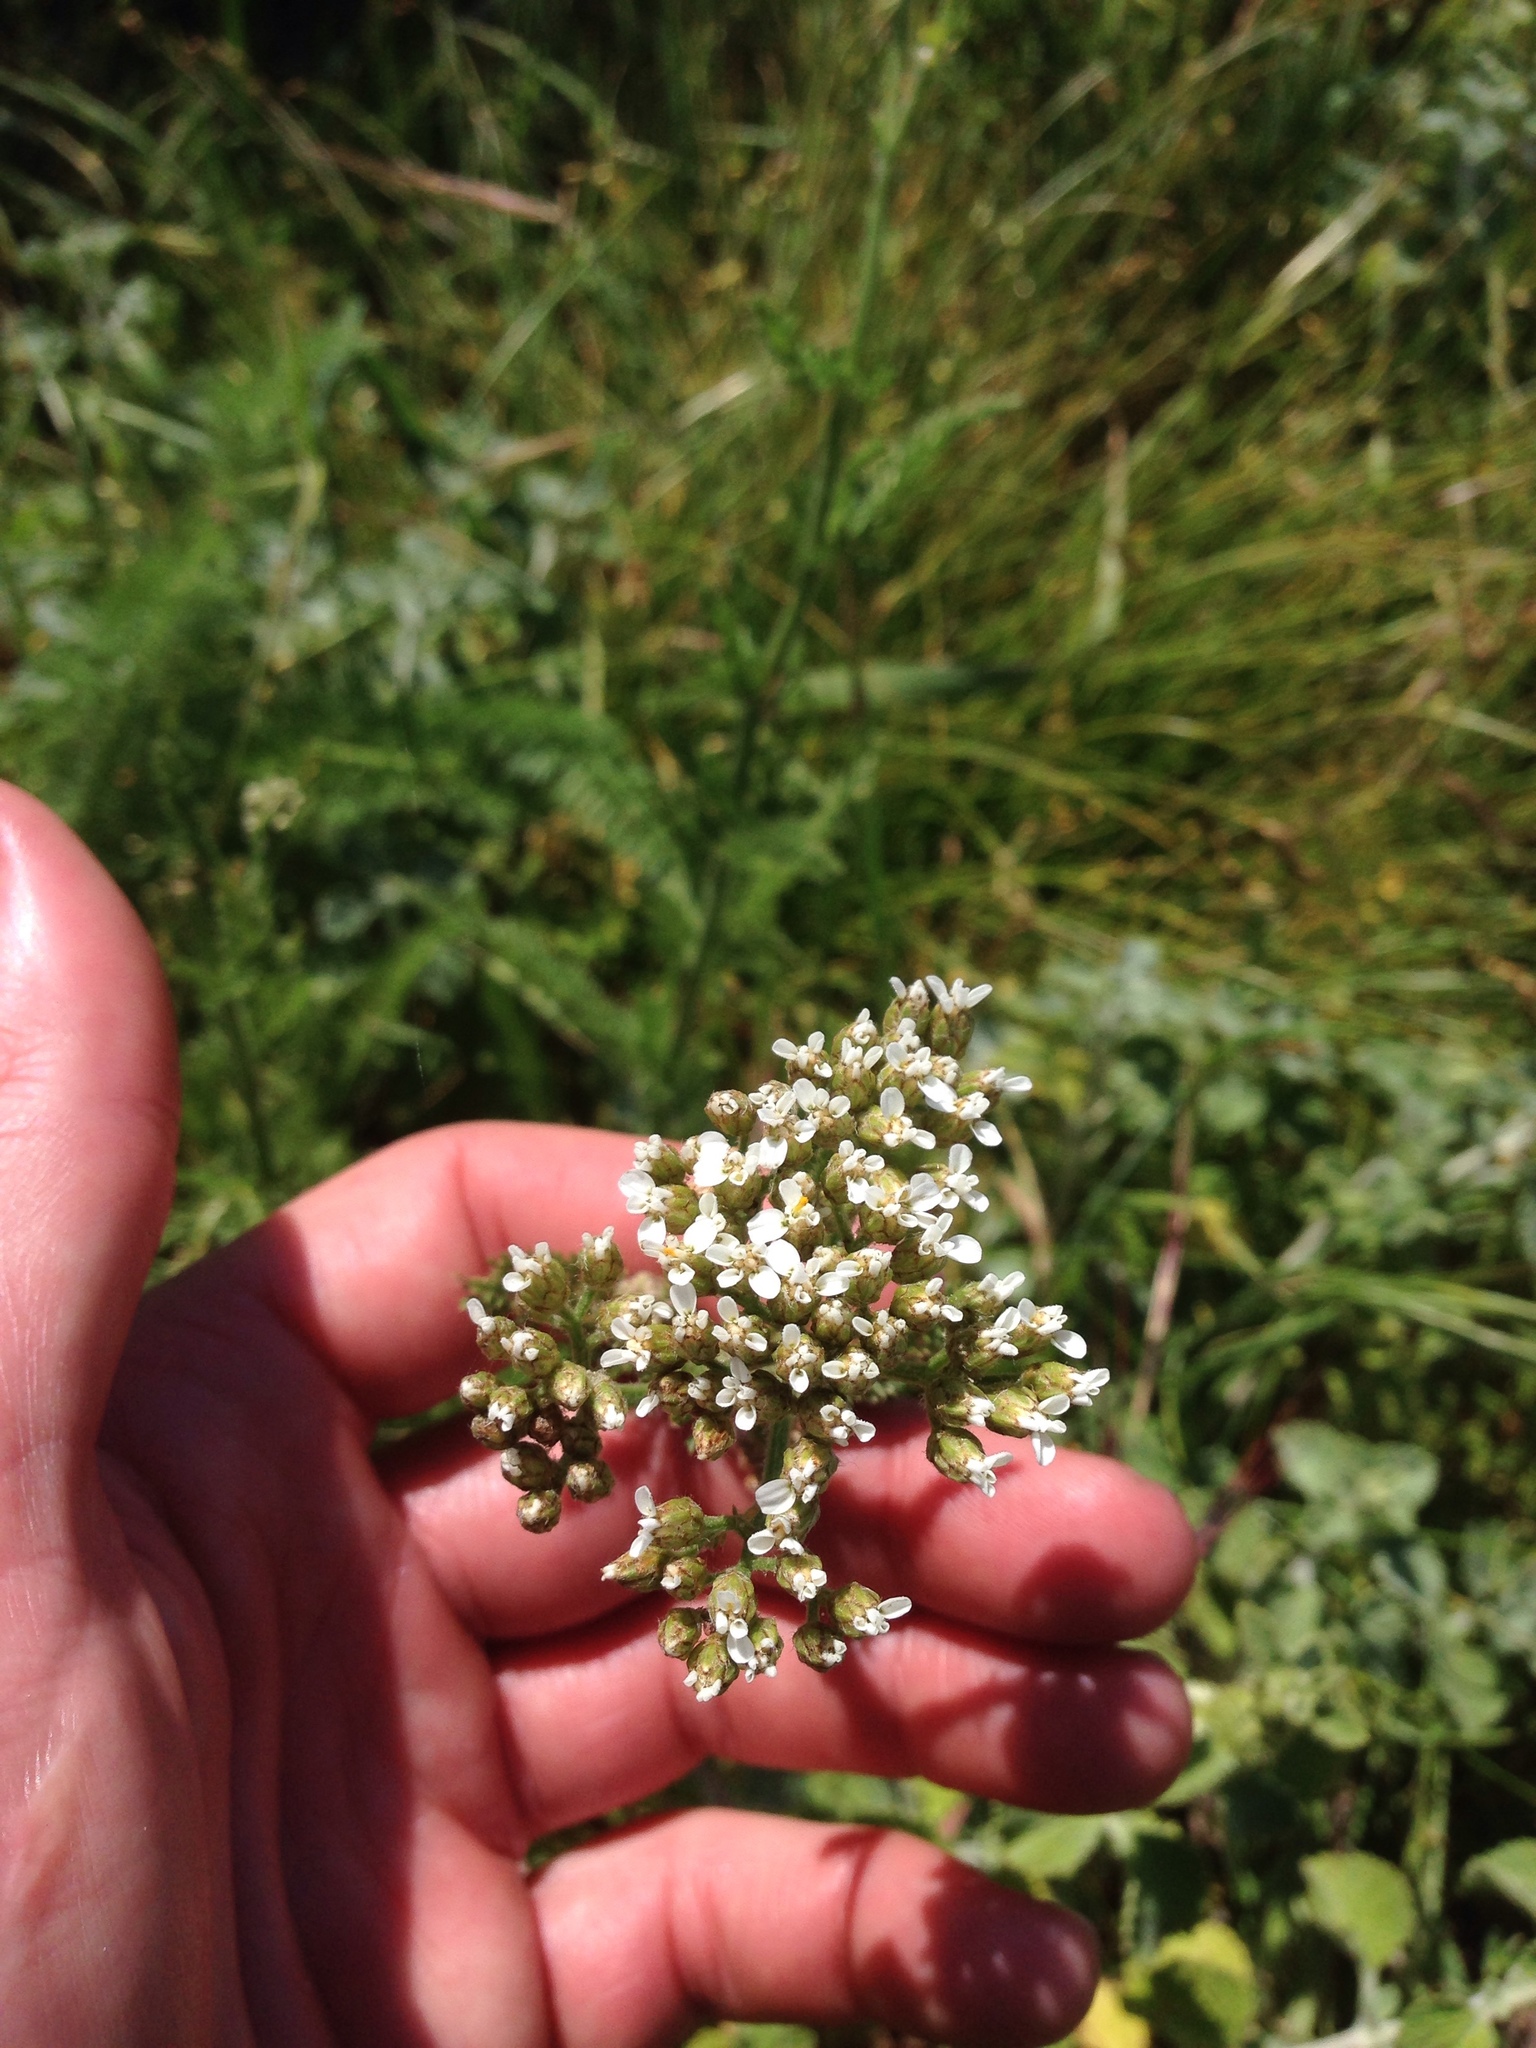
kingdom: Plantae
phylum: Tracheophyta
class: Magnoliopsida
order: Asterales
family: Asteraceae
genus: Achillea
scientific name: Achillea millefolium
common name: Yarrow
